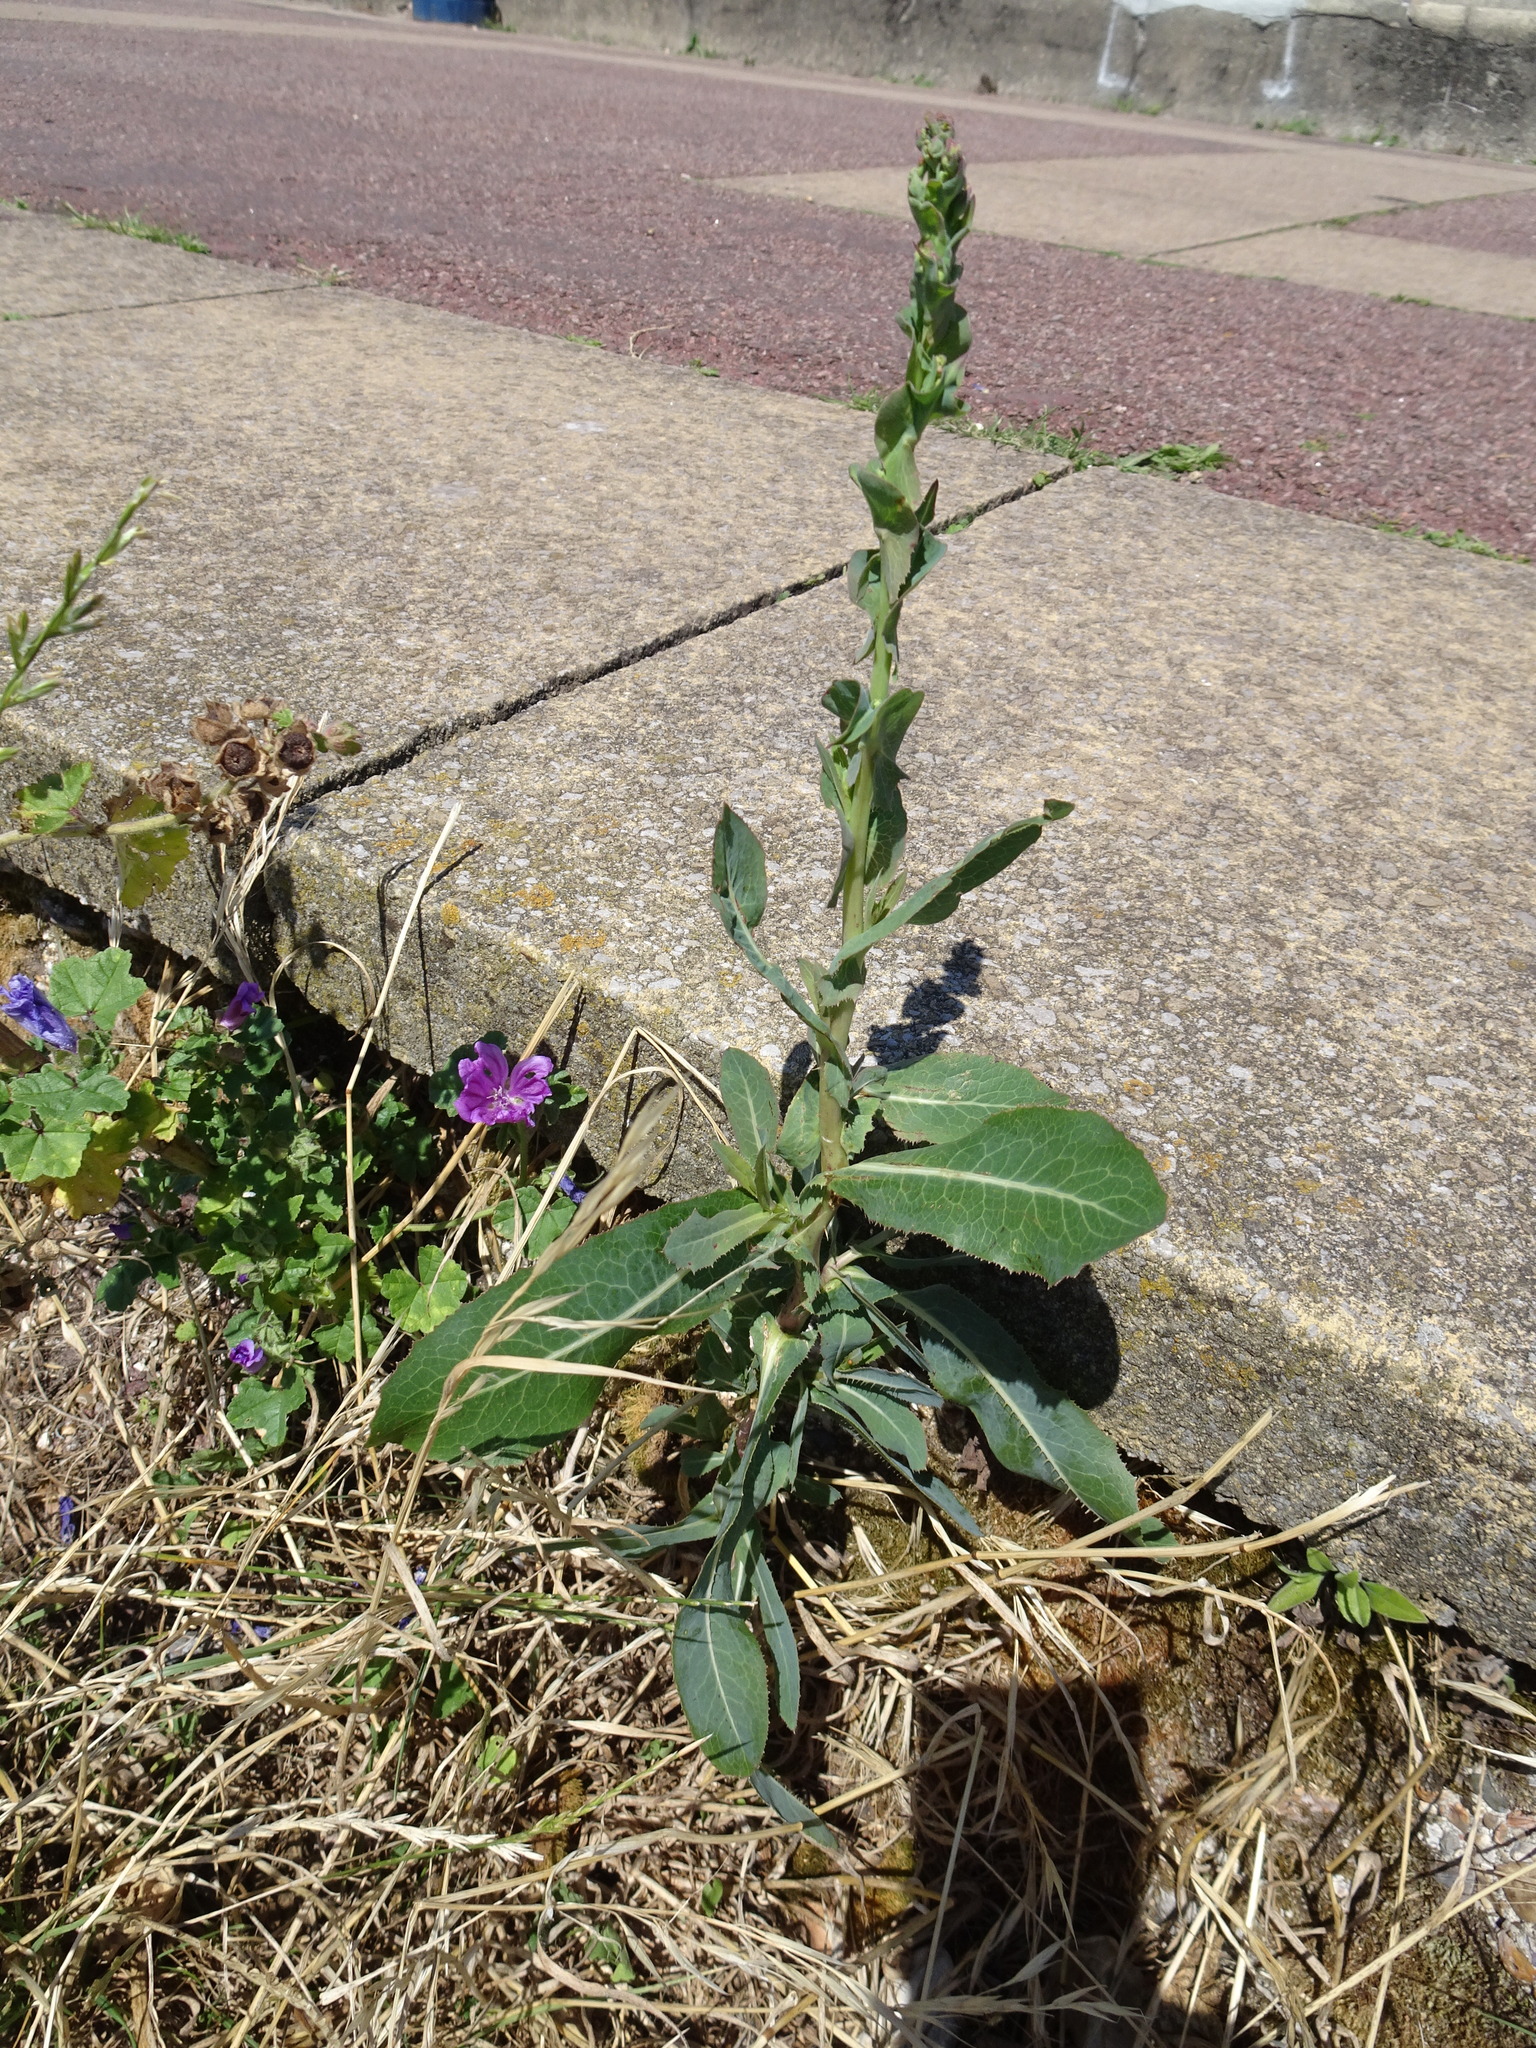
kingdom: Plantae
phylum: Tracheophyta
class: Magnoliopsida
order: Asterales
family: Asteraceae
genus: Lactuca
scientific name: Lactuca serriola
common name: Prickly lettuce
